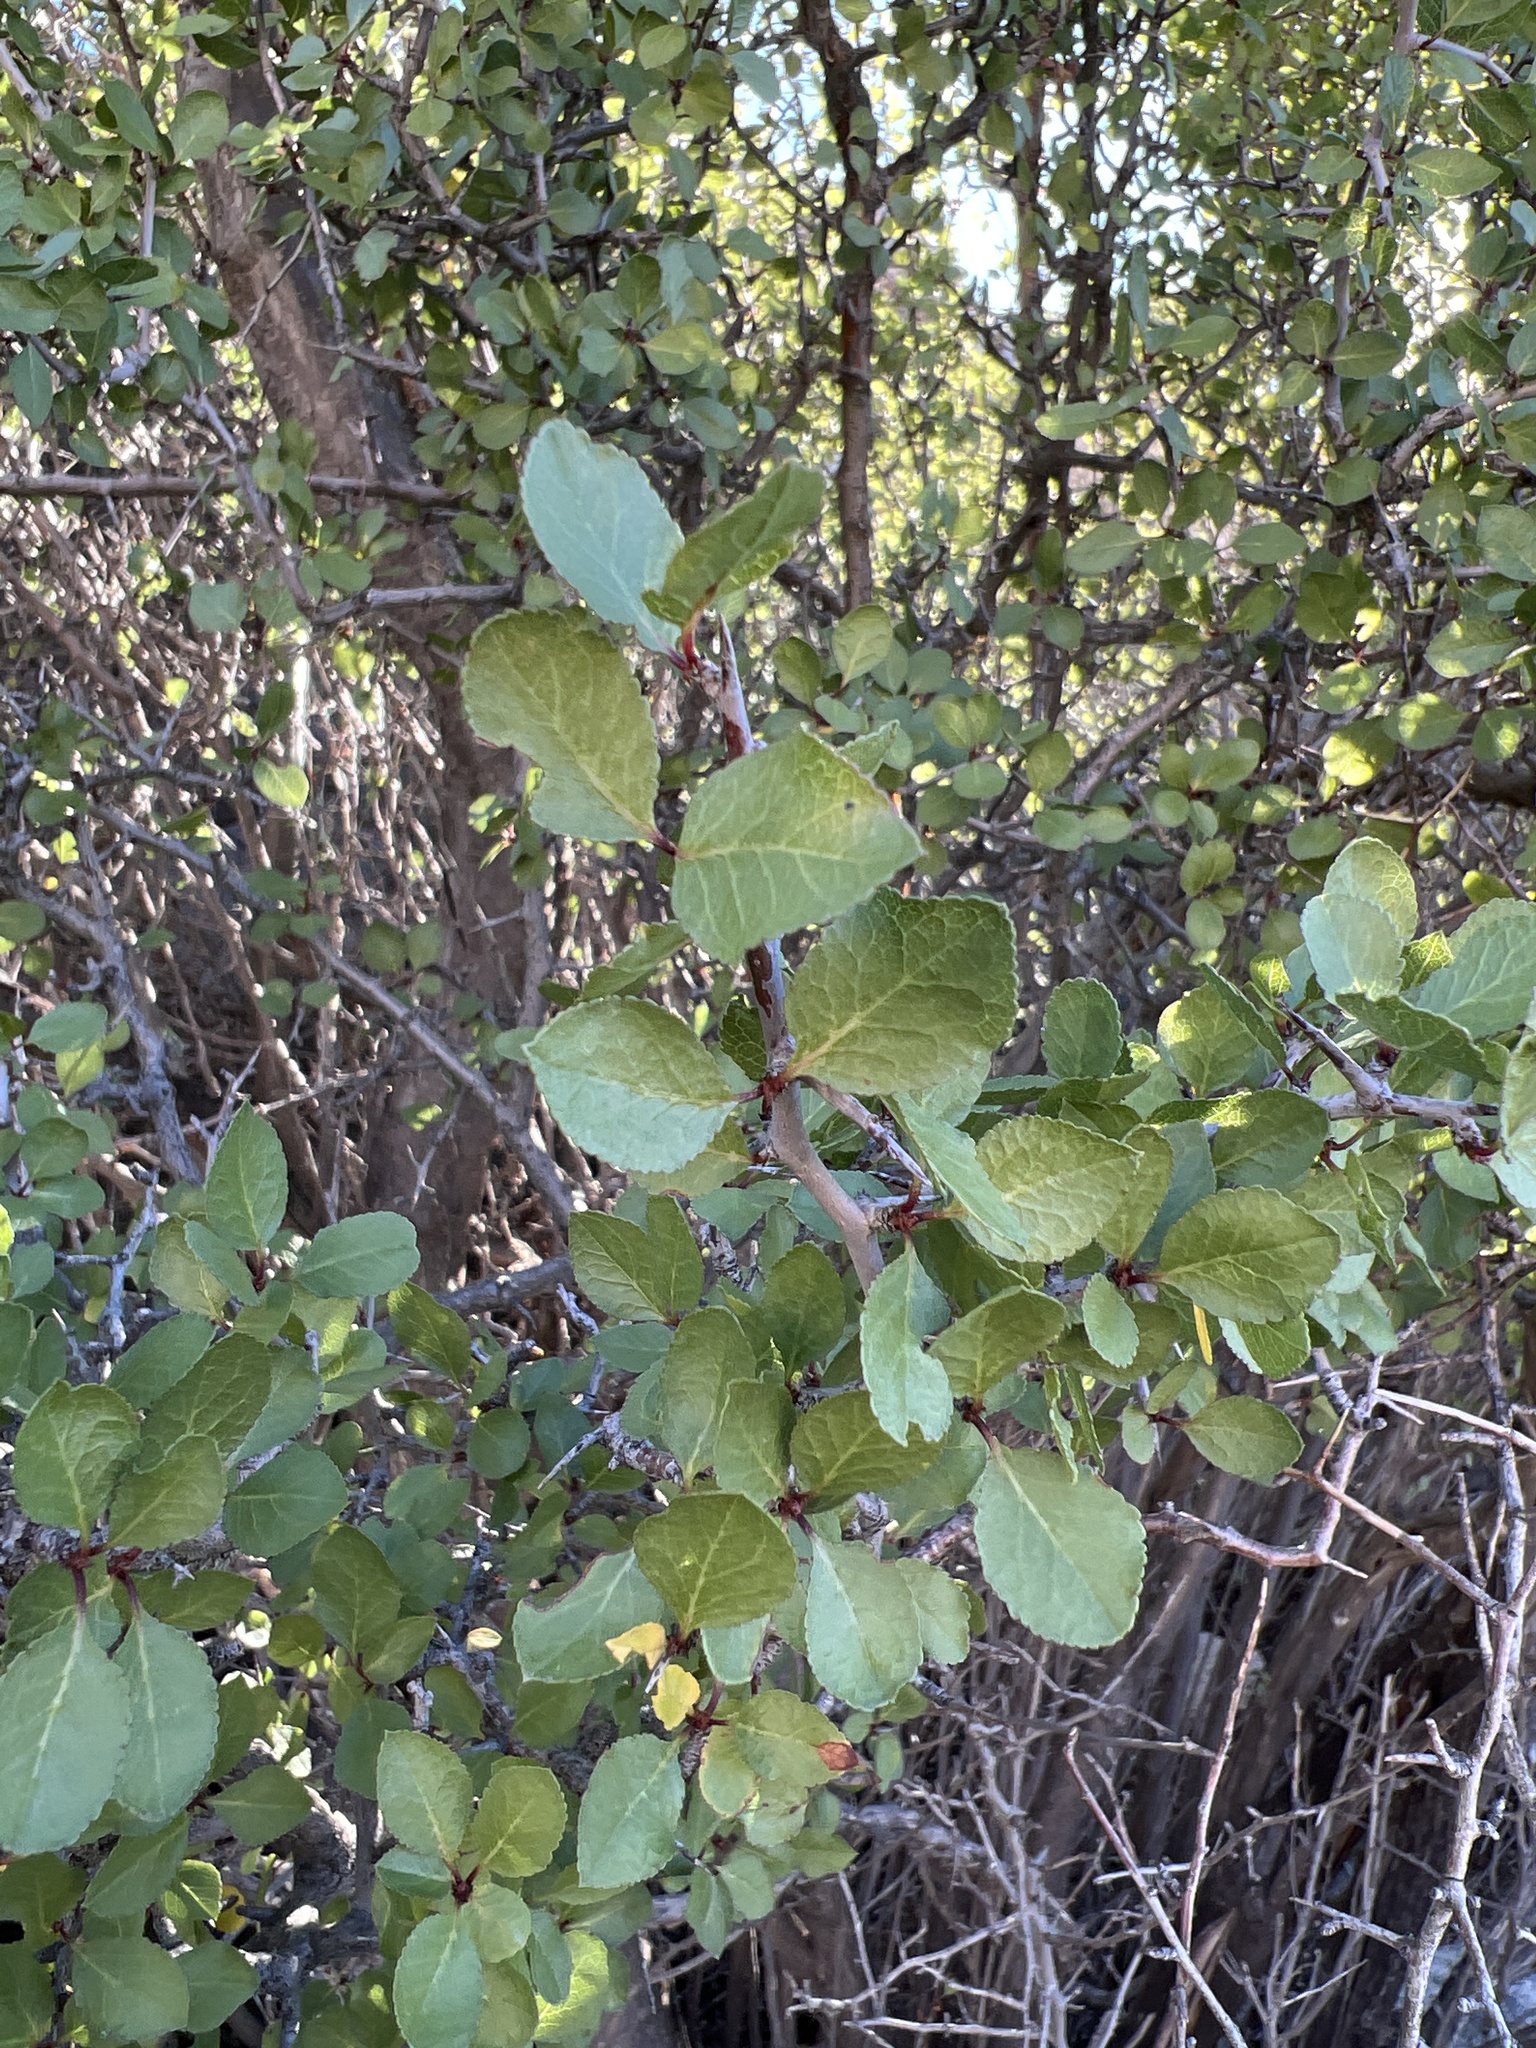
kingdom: Plantae
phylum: Tracheophyta
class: Magnoliopsida
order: Rosales
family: Rosaceae
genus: Prunus
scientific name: Prunus fremontii
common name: Desert apricot
